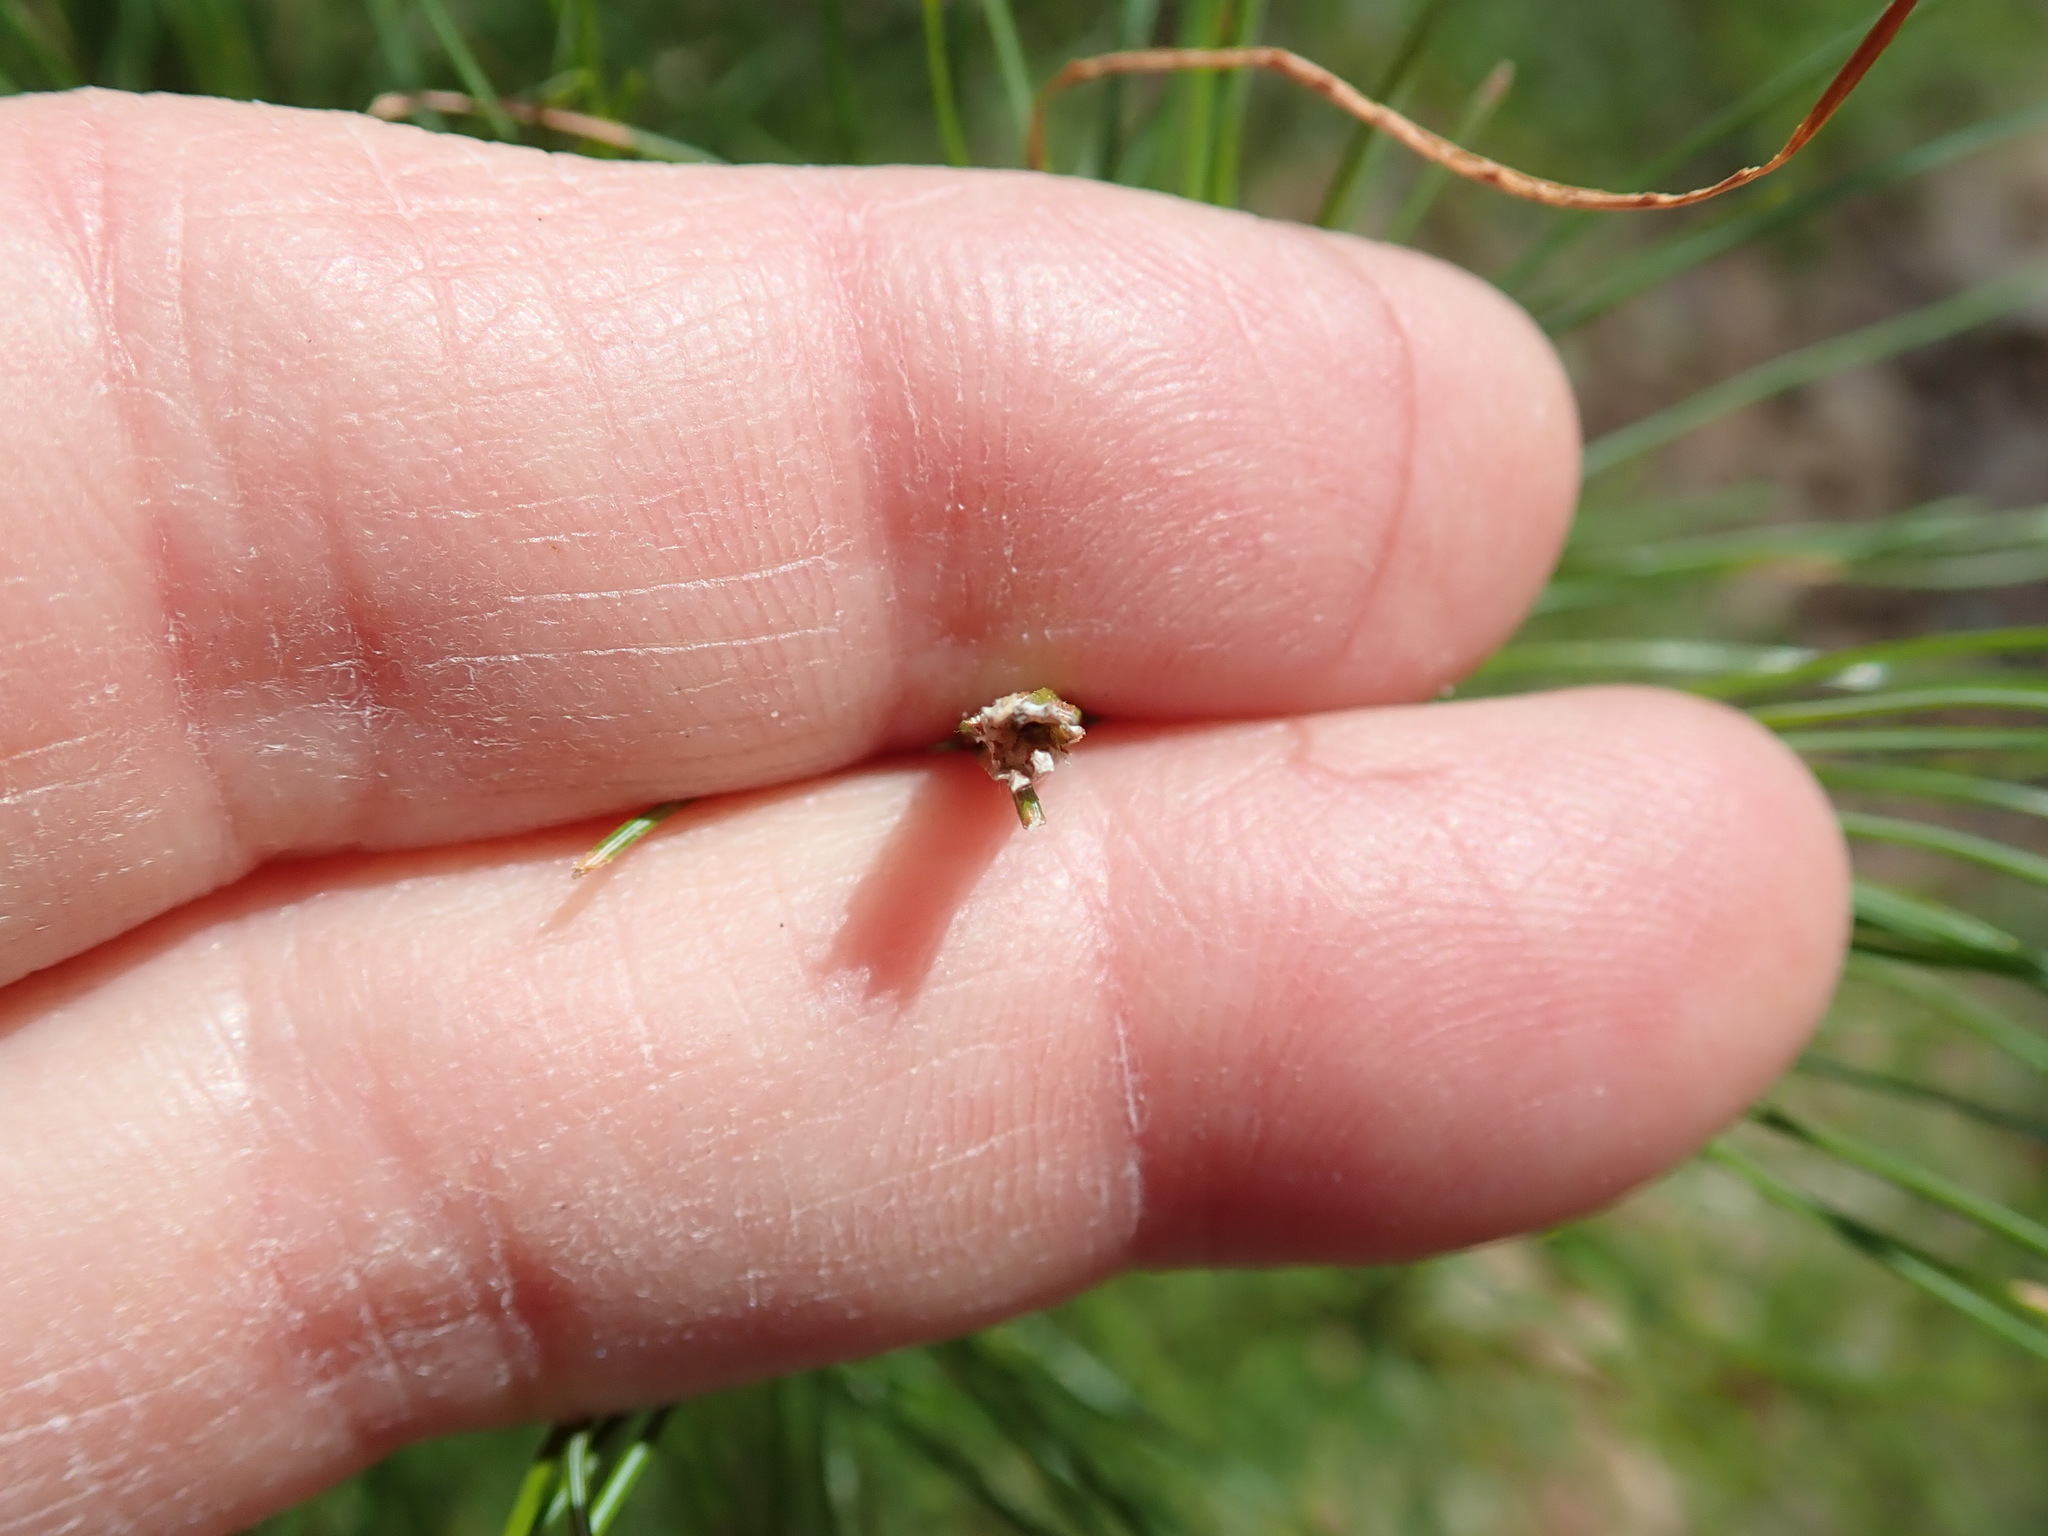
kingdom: Animalia
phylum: Arthropoda
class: Insecta
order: Lepidoptera
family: Tortricidae
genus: Argyrotaenia
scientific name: Argyrotaenia pinatubana
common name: Pine tube moth
